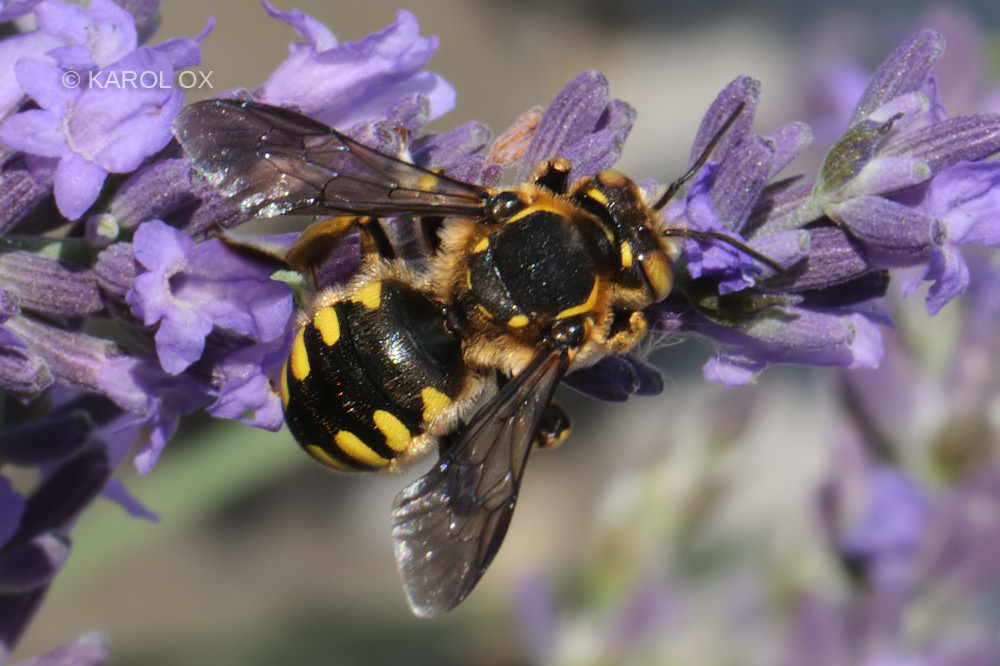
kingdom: Animalia
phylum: Arthropoda
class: Insecta
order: Hymenoptera
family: Megachilidae
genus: Anthidium
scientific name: Anthidium florentinum
